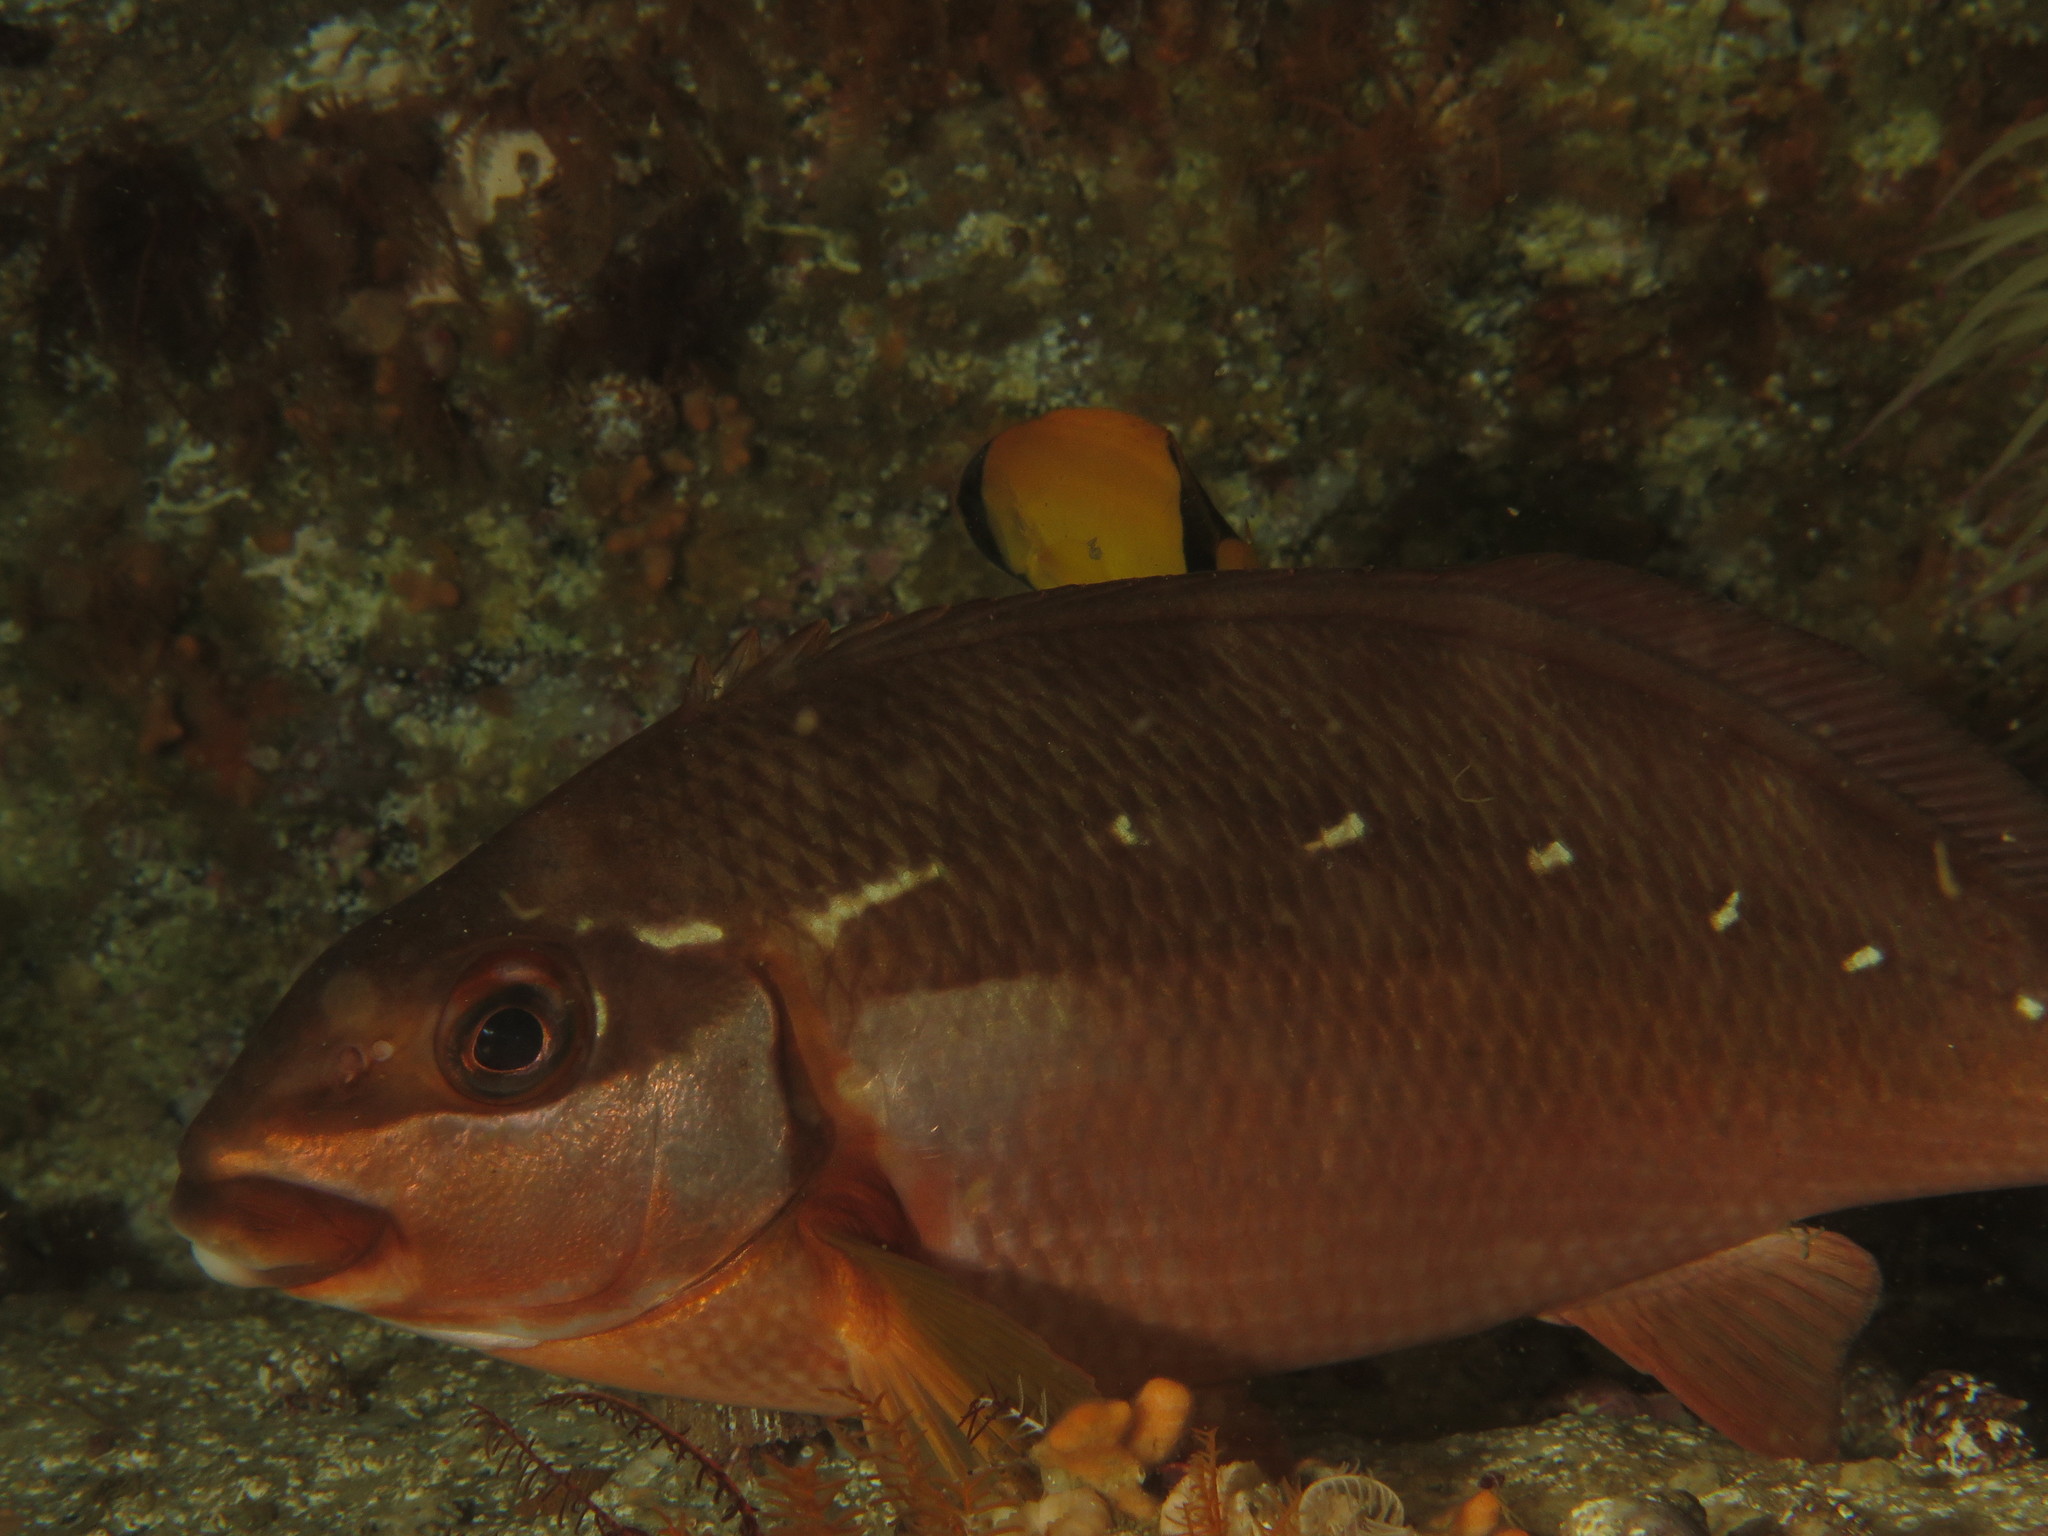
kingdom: Animalia
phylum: Chordata
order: Perciformes
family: Cheilodactylidae
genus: Chirodactylus
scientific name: Chirodactylus brachydactylus
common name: Butterfish
